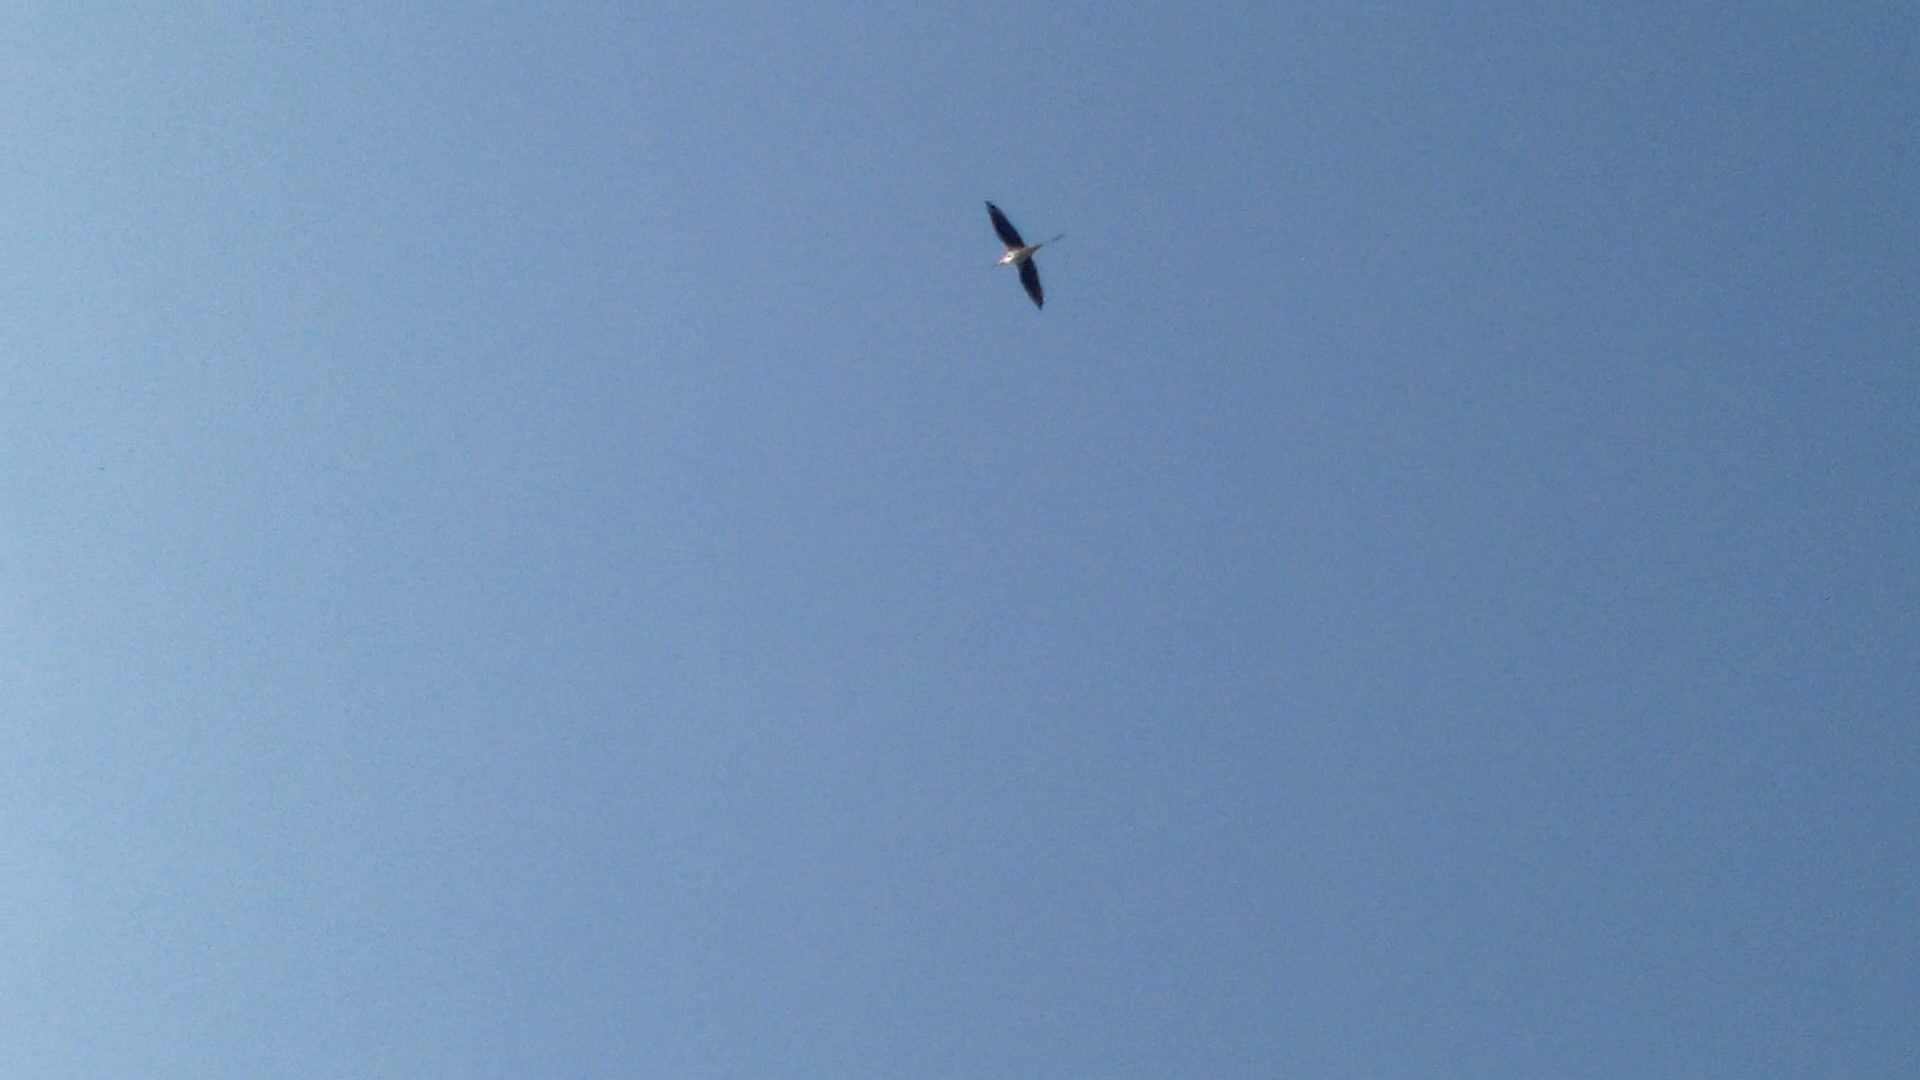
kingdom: Animalia
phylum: Chordata
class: Aves
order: Charadriiformes
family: Recurvirostridae
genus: Himantopus
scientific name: Himantopus himantopus
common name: Black-winged stilt
